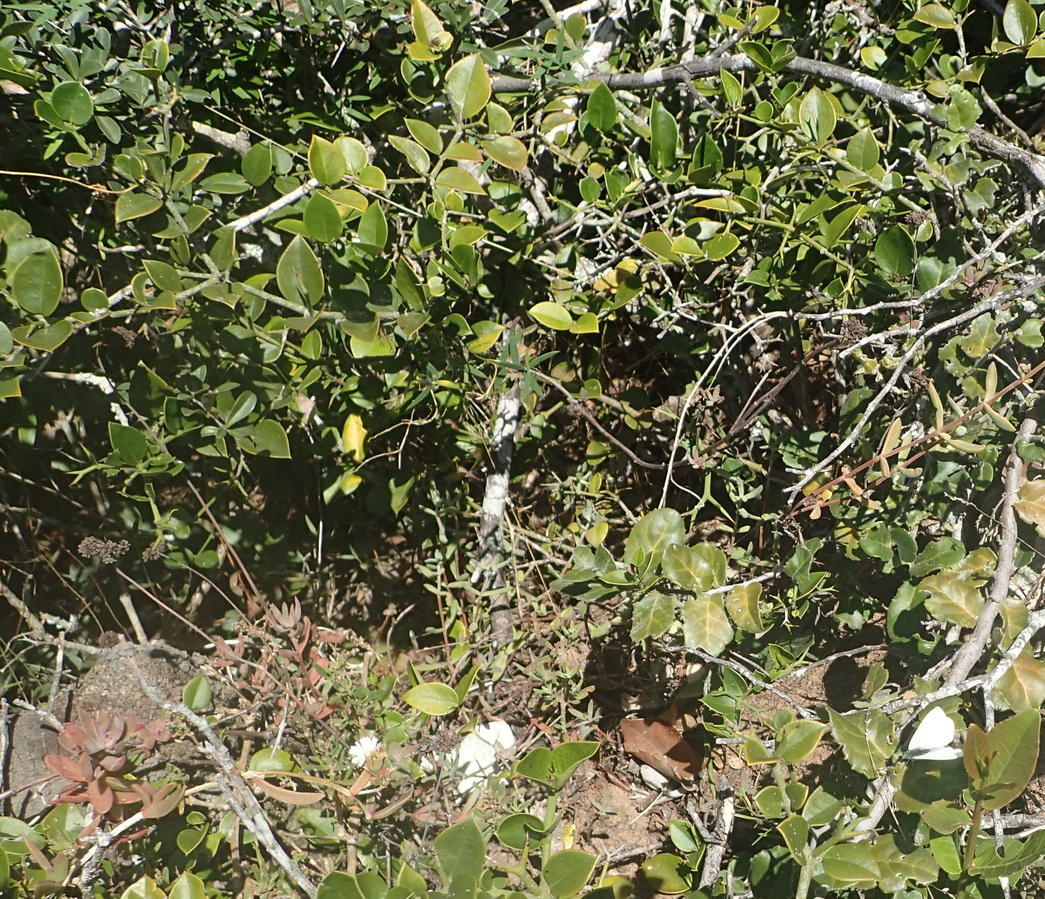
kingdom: Plantae
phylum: Tracheophyta
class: Magnoliopsida
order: Gentianales
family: Apocynaceae
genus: Carissa
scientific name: Carissa bispinosa
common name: Forest num-num
